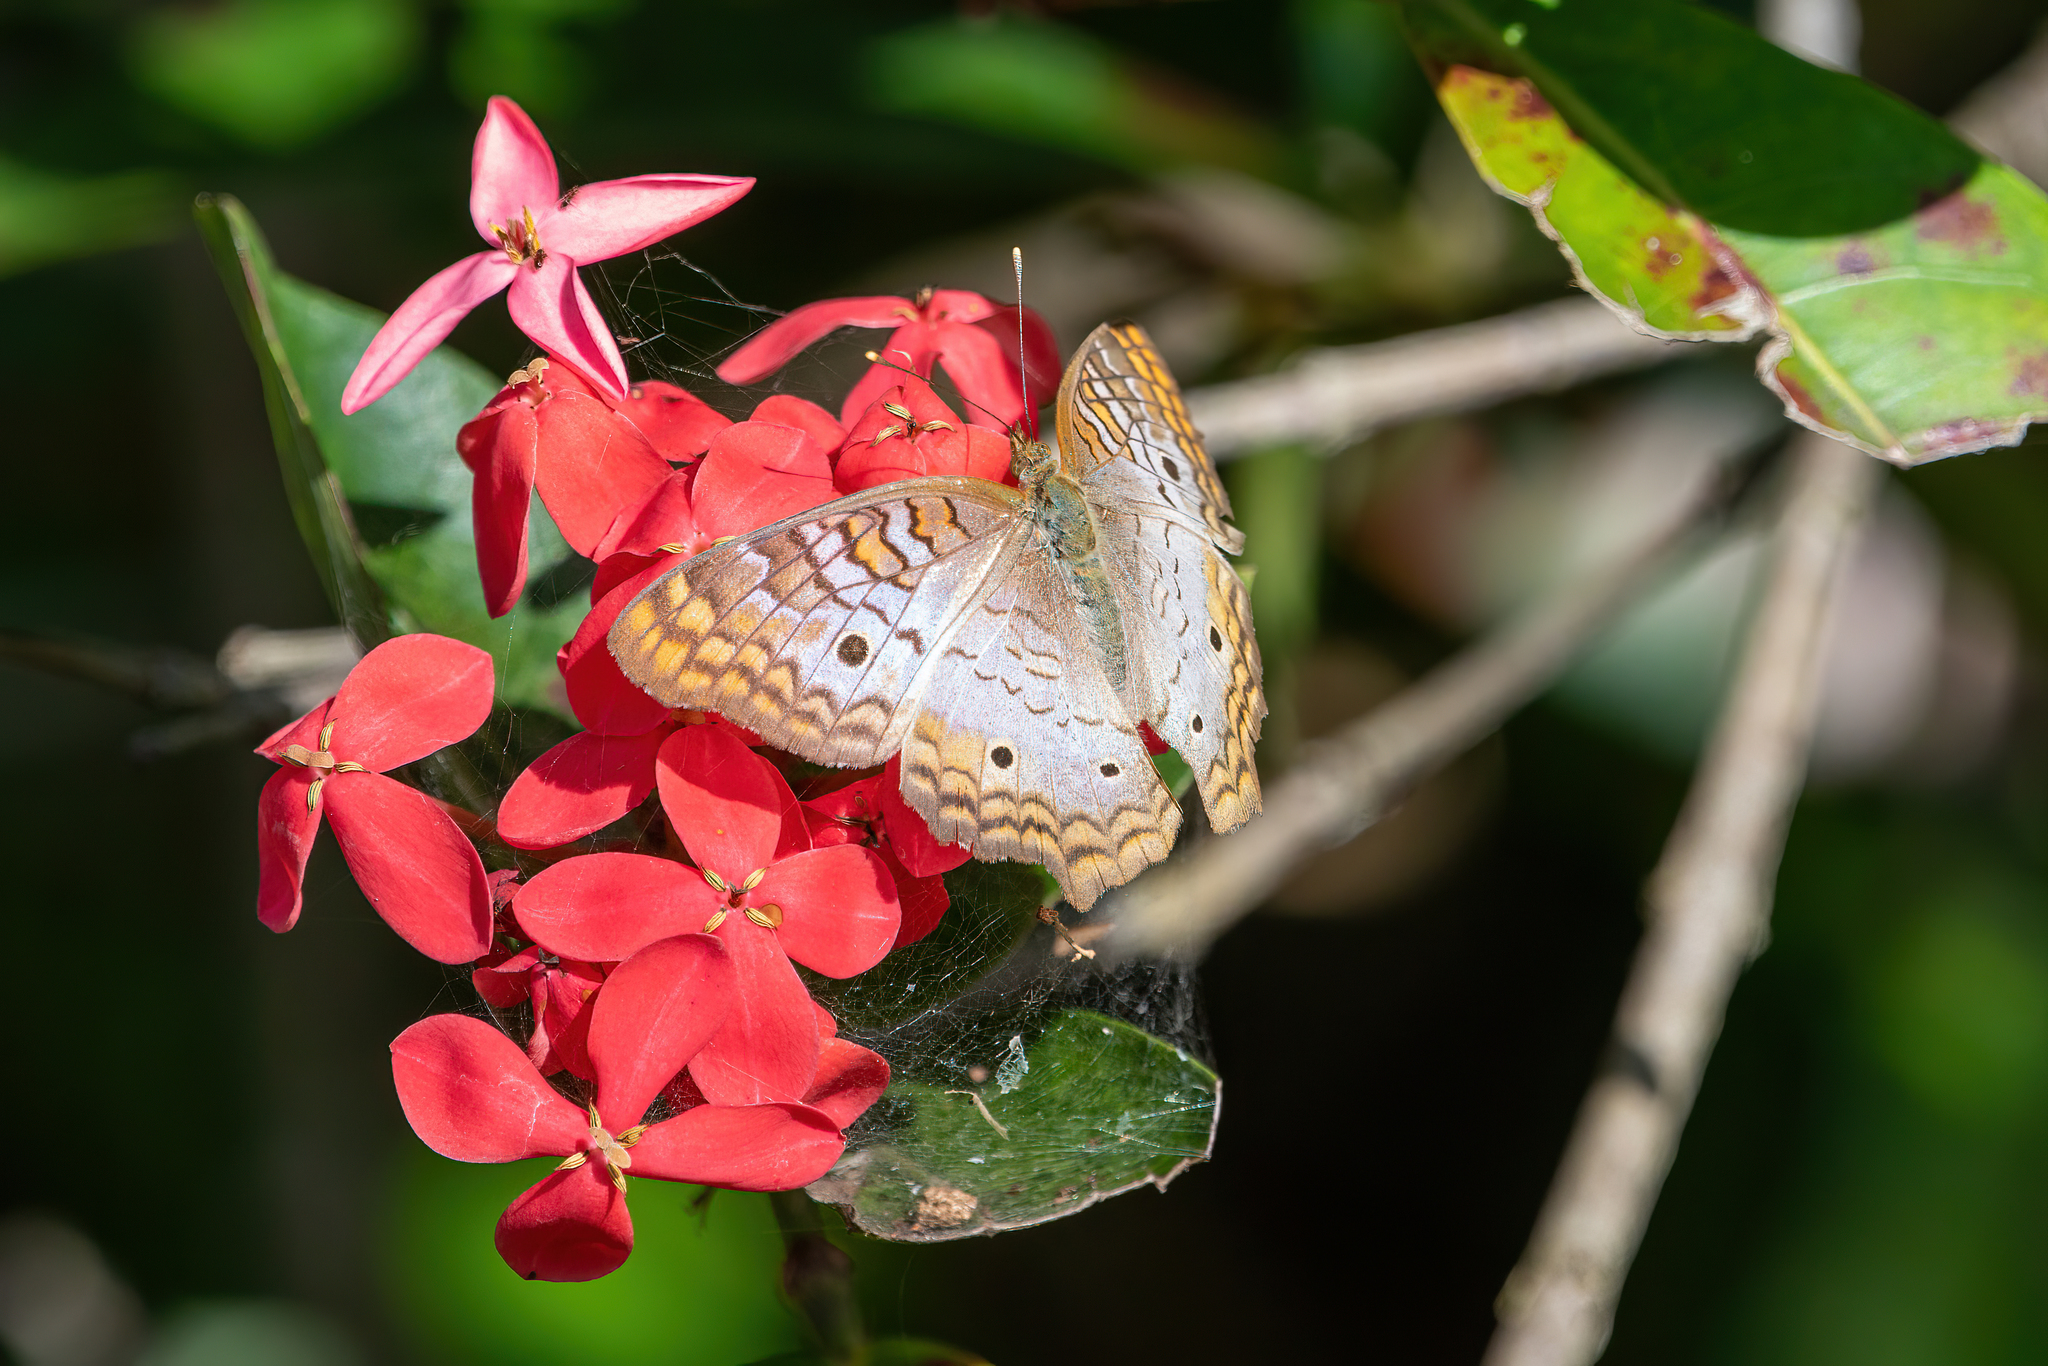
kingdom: Animalia
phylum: Arthropoda
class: Insecta
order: Lepidoptera
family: Nymphalidae
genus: Anartia
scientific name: Anartia jatrophae
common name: White peacock
